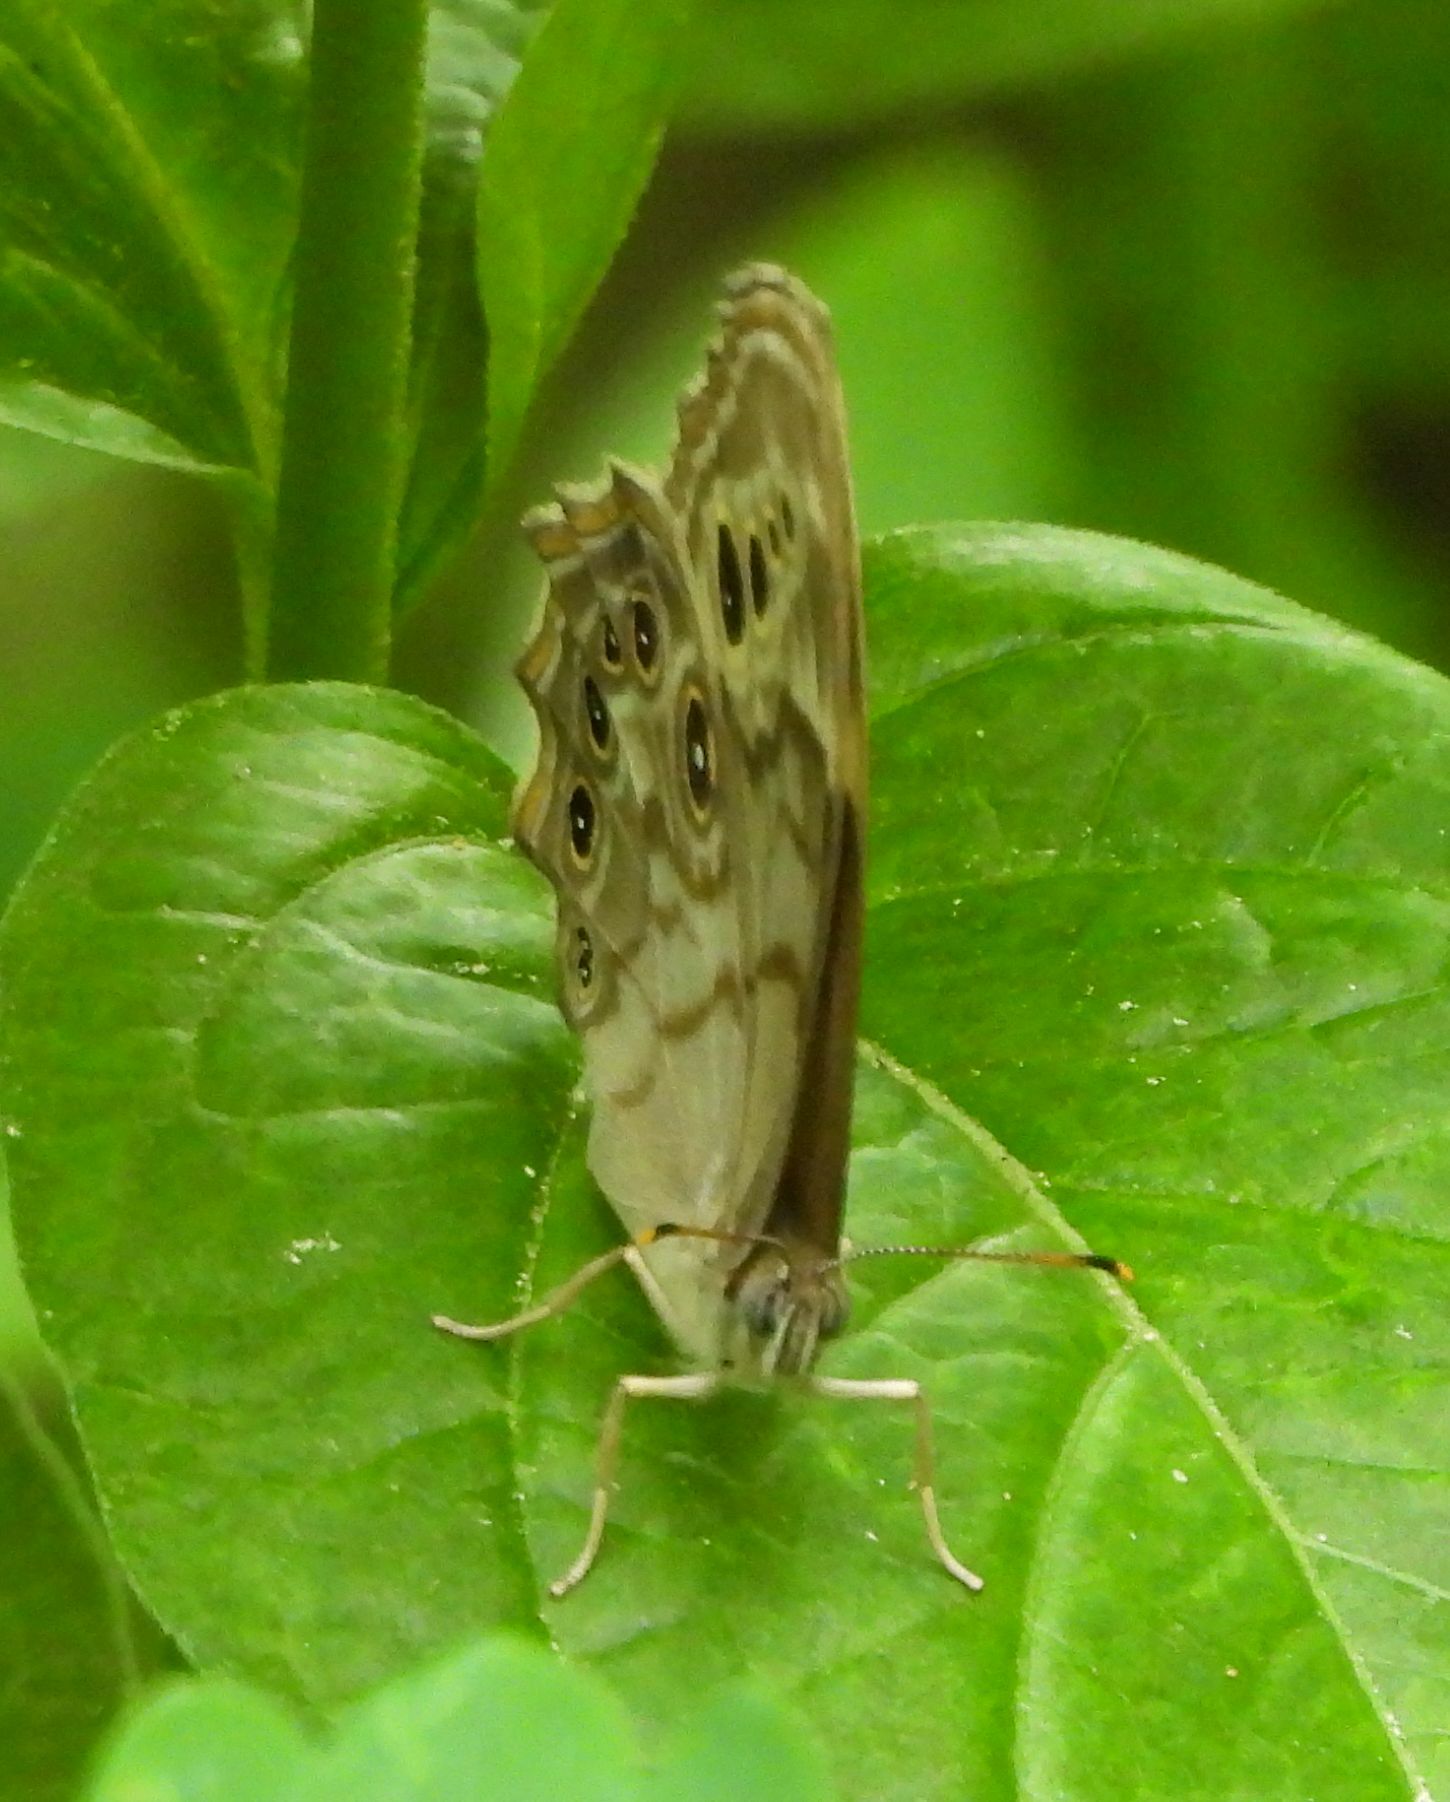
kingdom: Animalia
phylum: Arthropoda
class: Insecta
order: Lepidoptera
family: Nymphalidae
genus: Lethe
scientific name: Lethe anthedon
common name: Northern pearly-eye
